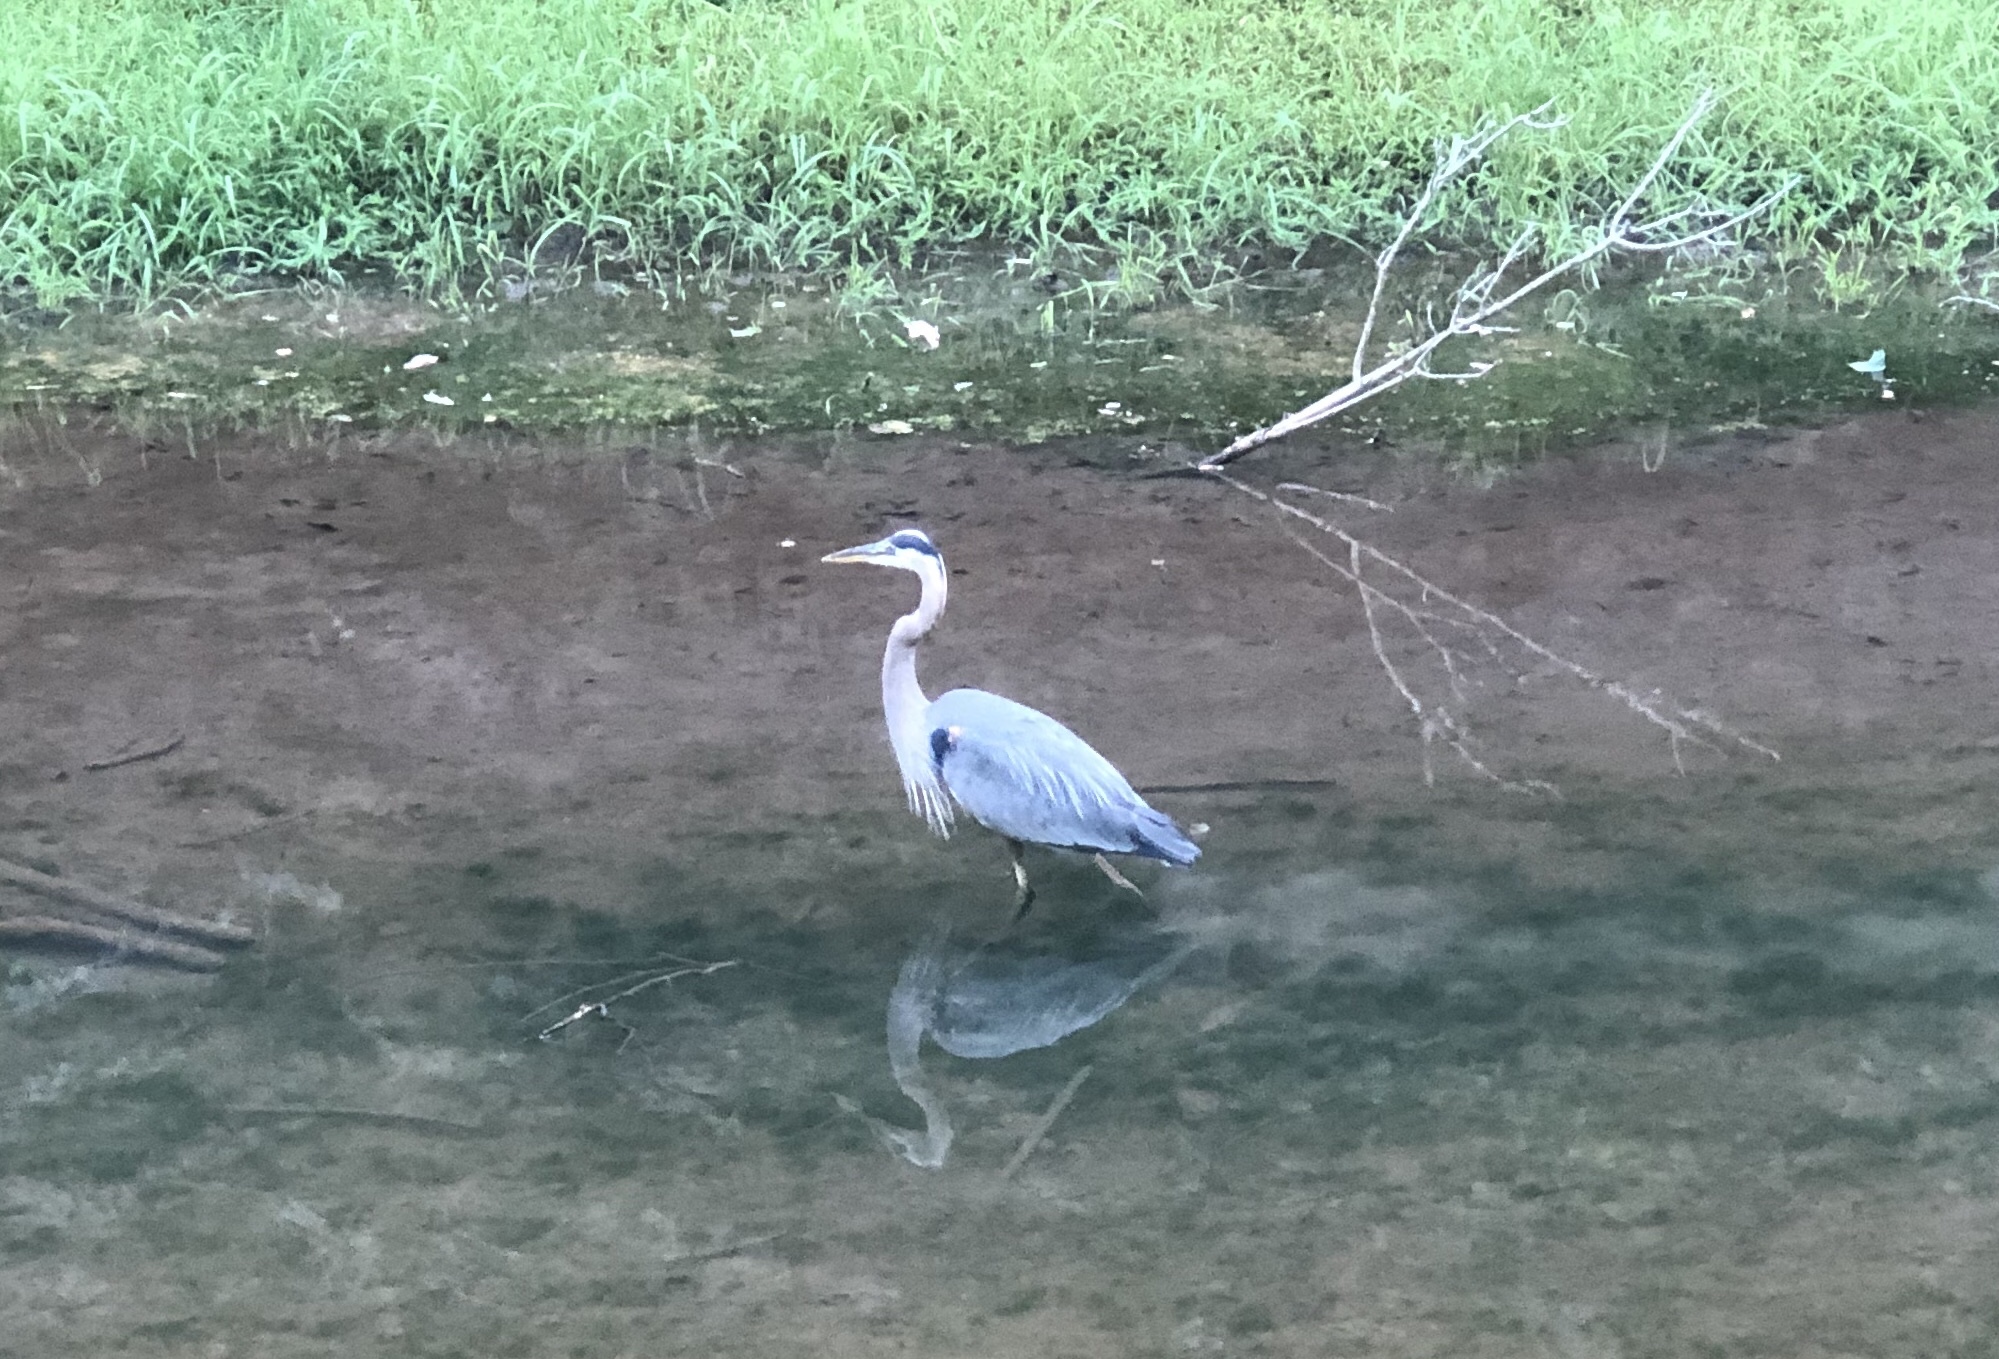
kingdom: Animalia
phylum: Chordata
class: Aves
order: Pelecaniformes
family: Ardeidae
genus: Ardea
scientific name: Ardea herodias
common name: Great blue heron
